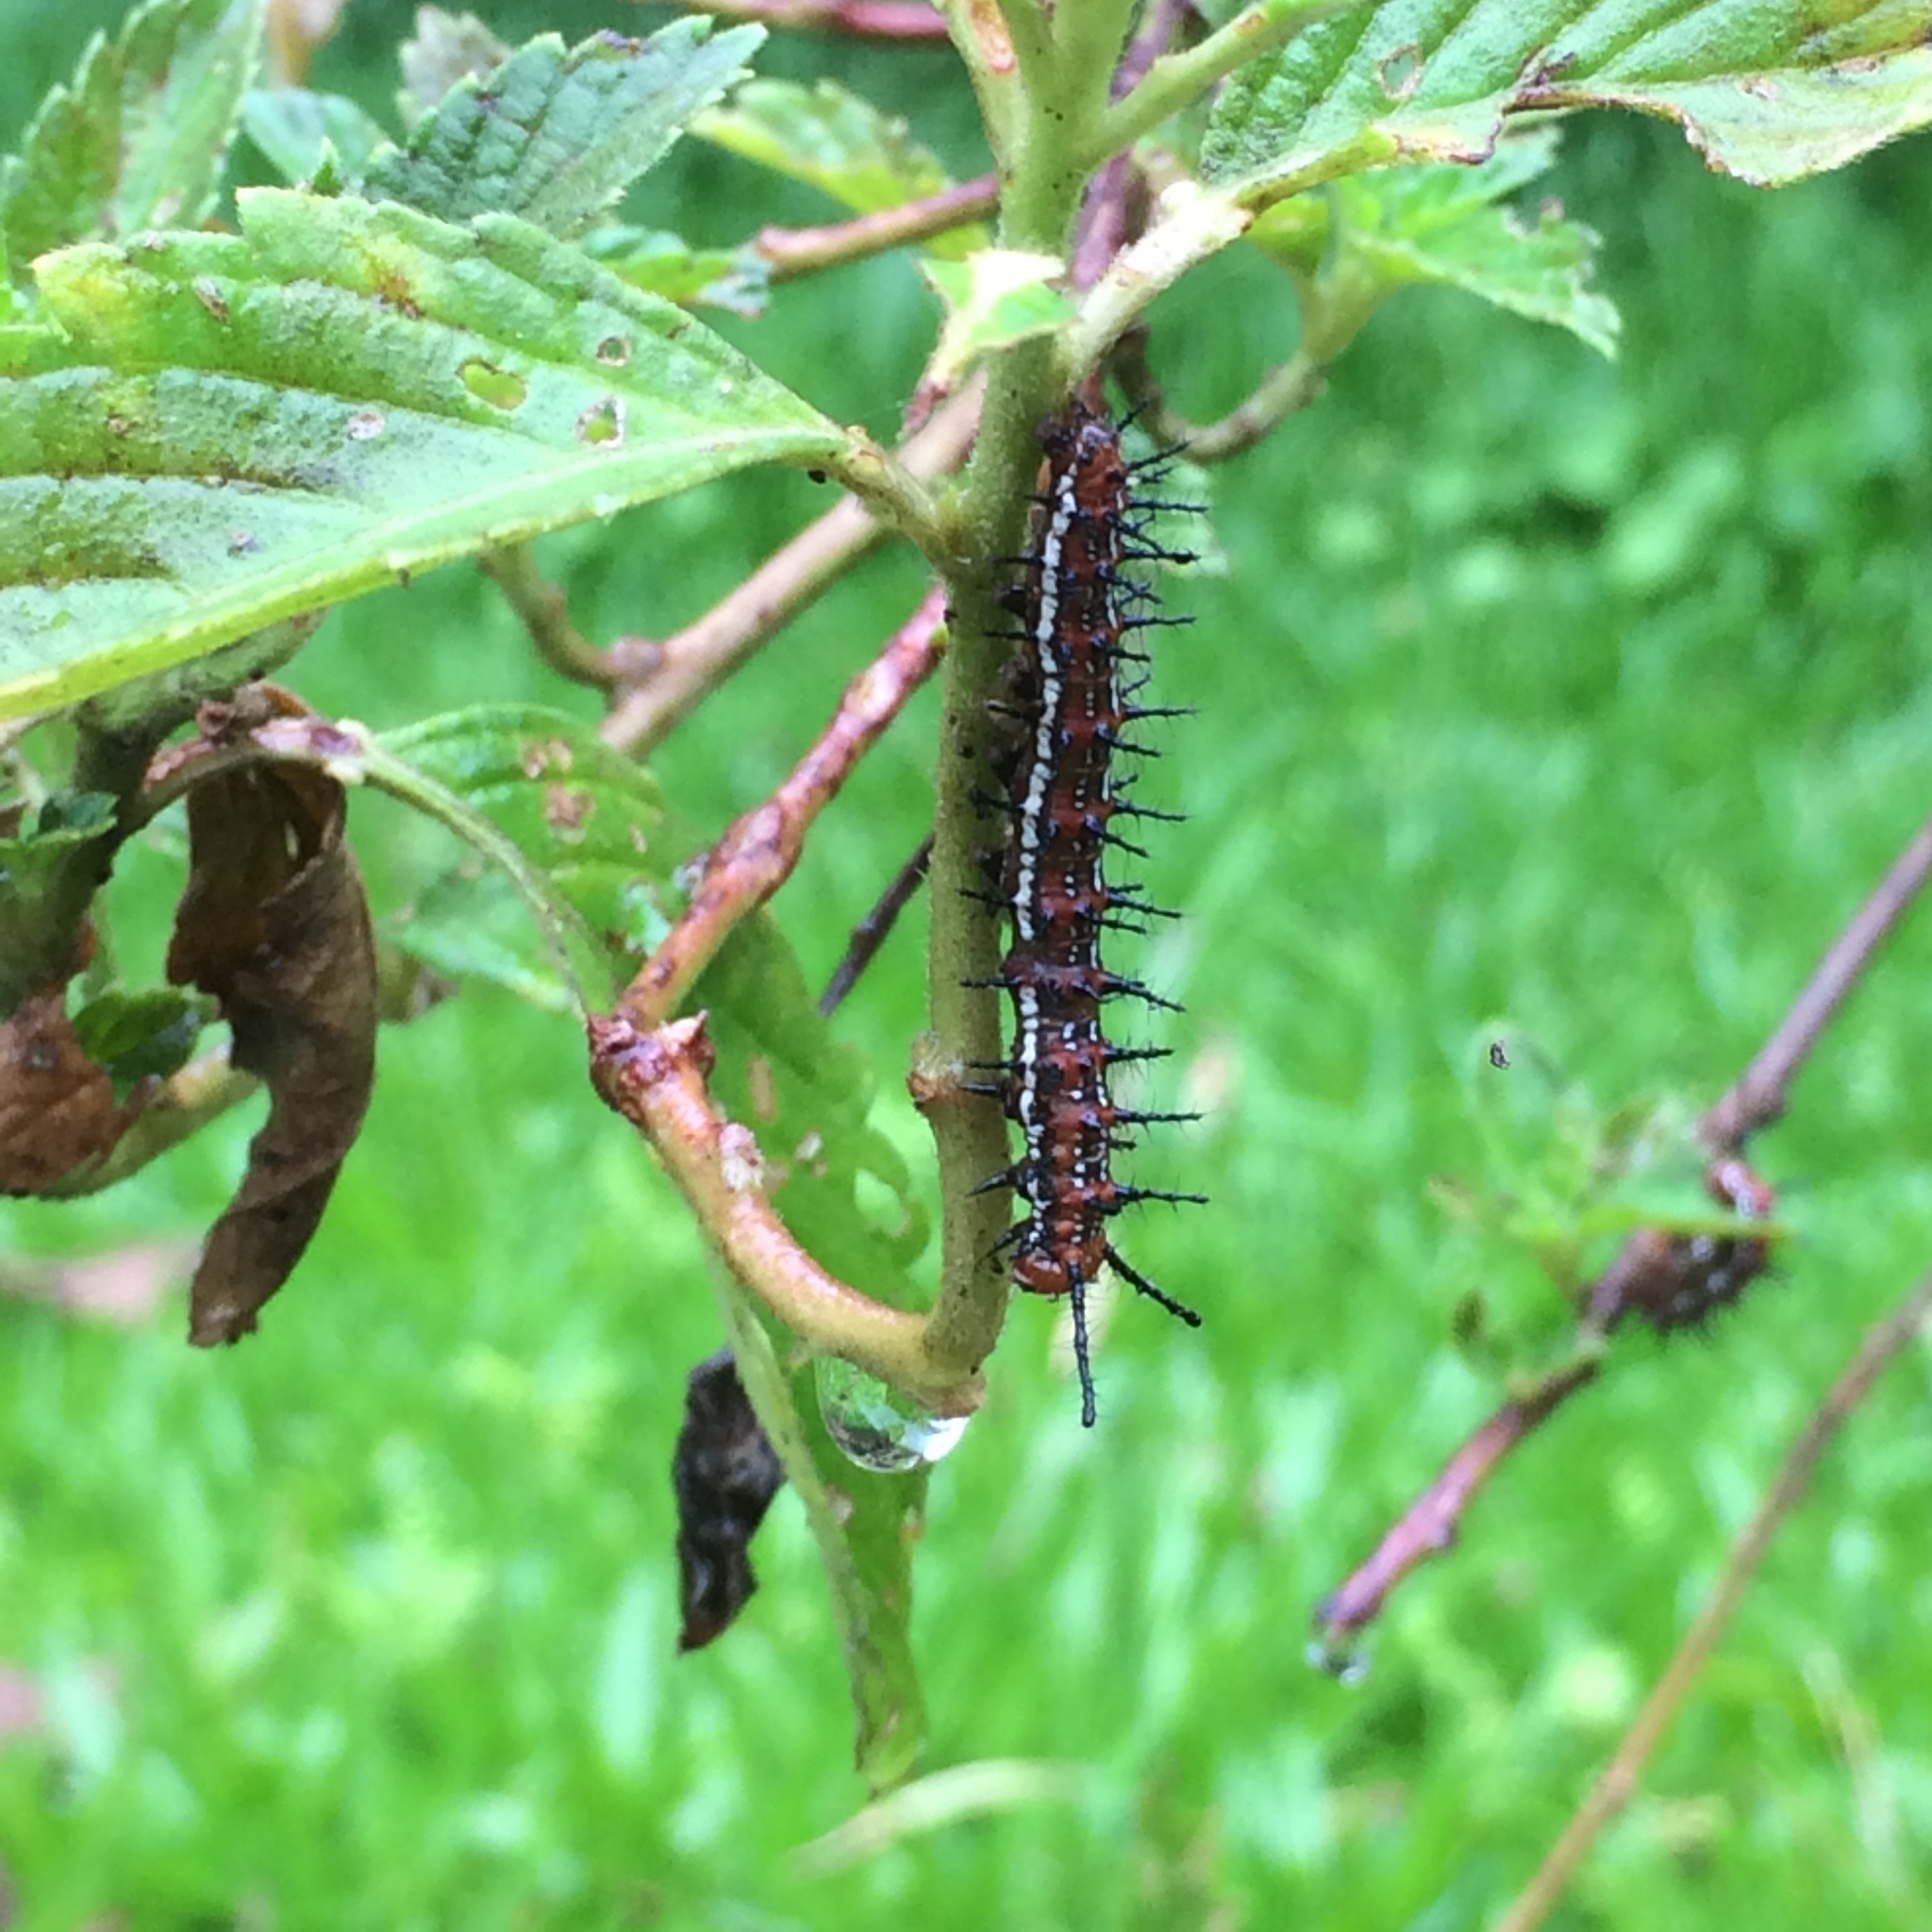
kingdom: Animalia
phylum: Arthropoda
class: Insecta
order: Lepidoptera
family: Nymphalidae
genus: Euptoieta
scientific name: Euptoieta hegesia
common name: Mexican fritillary
